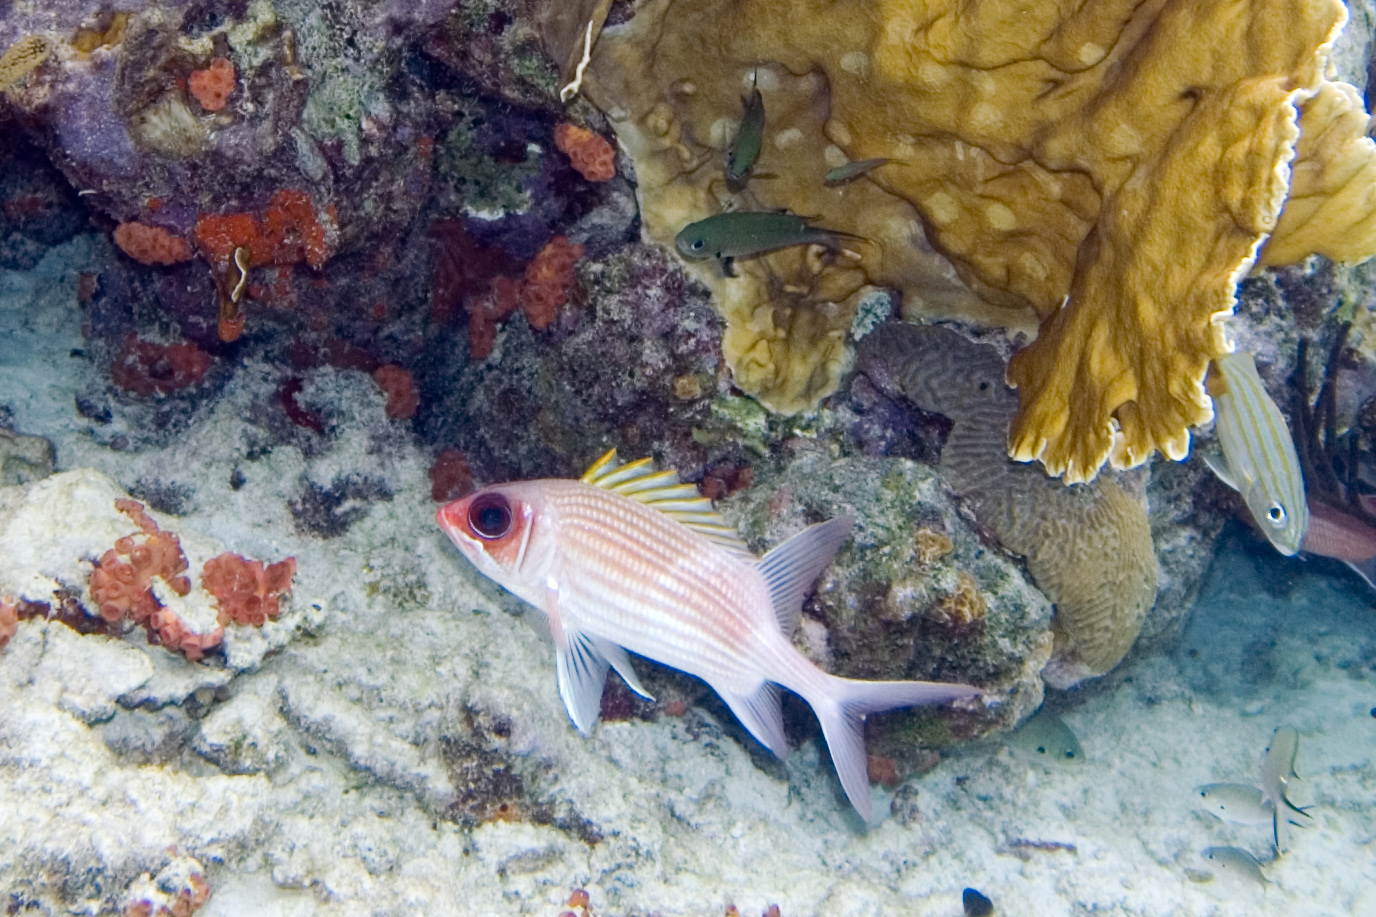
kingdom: Animalia
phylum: Chordata
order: Beryciformes
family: Holocentridae
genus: Holocentrus
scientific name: Holocentrus adscensionis
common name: Squirrelfish
